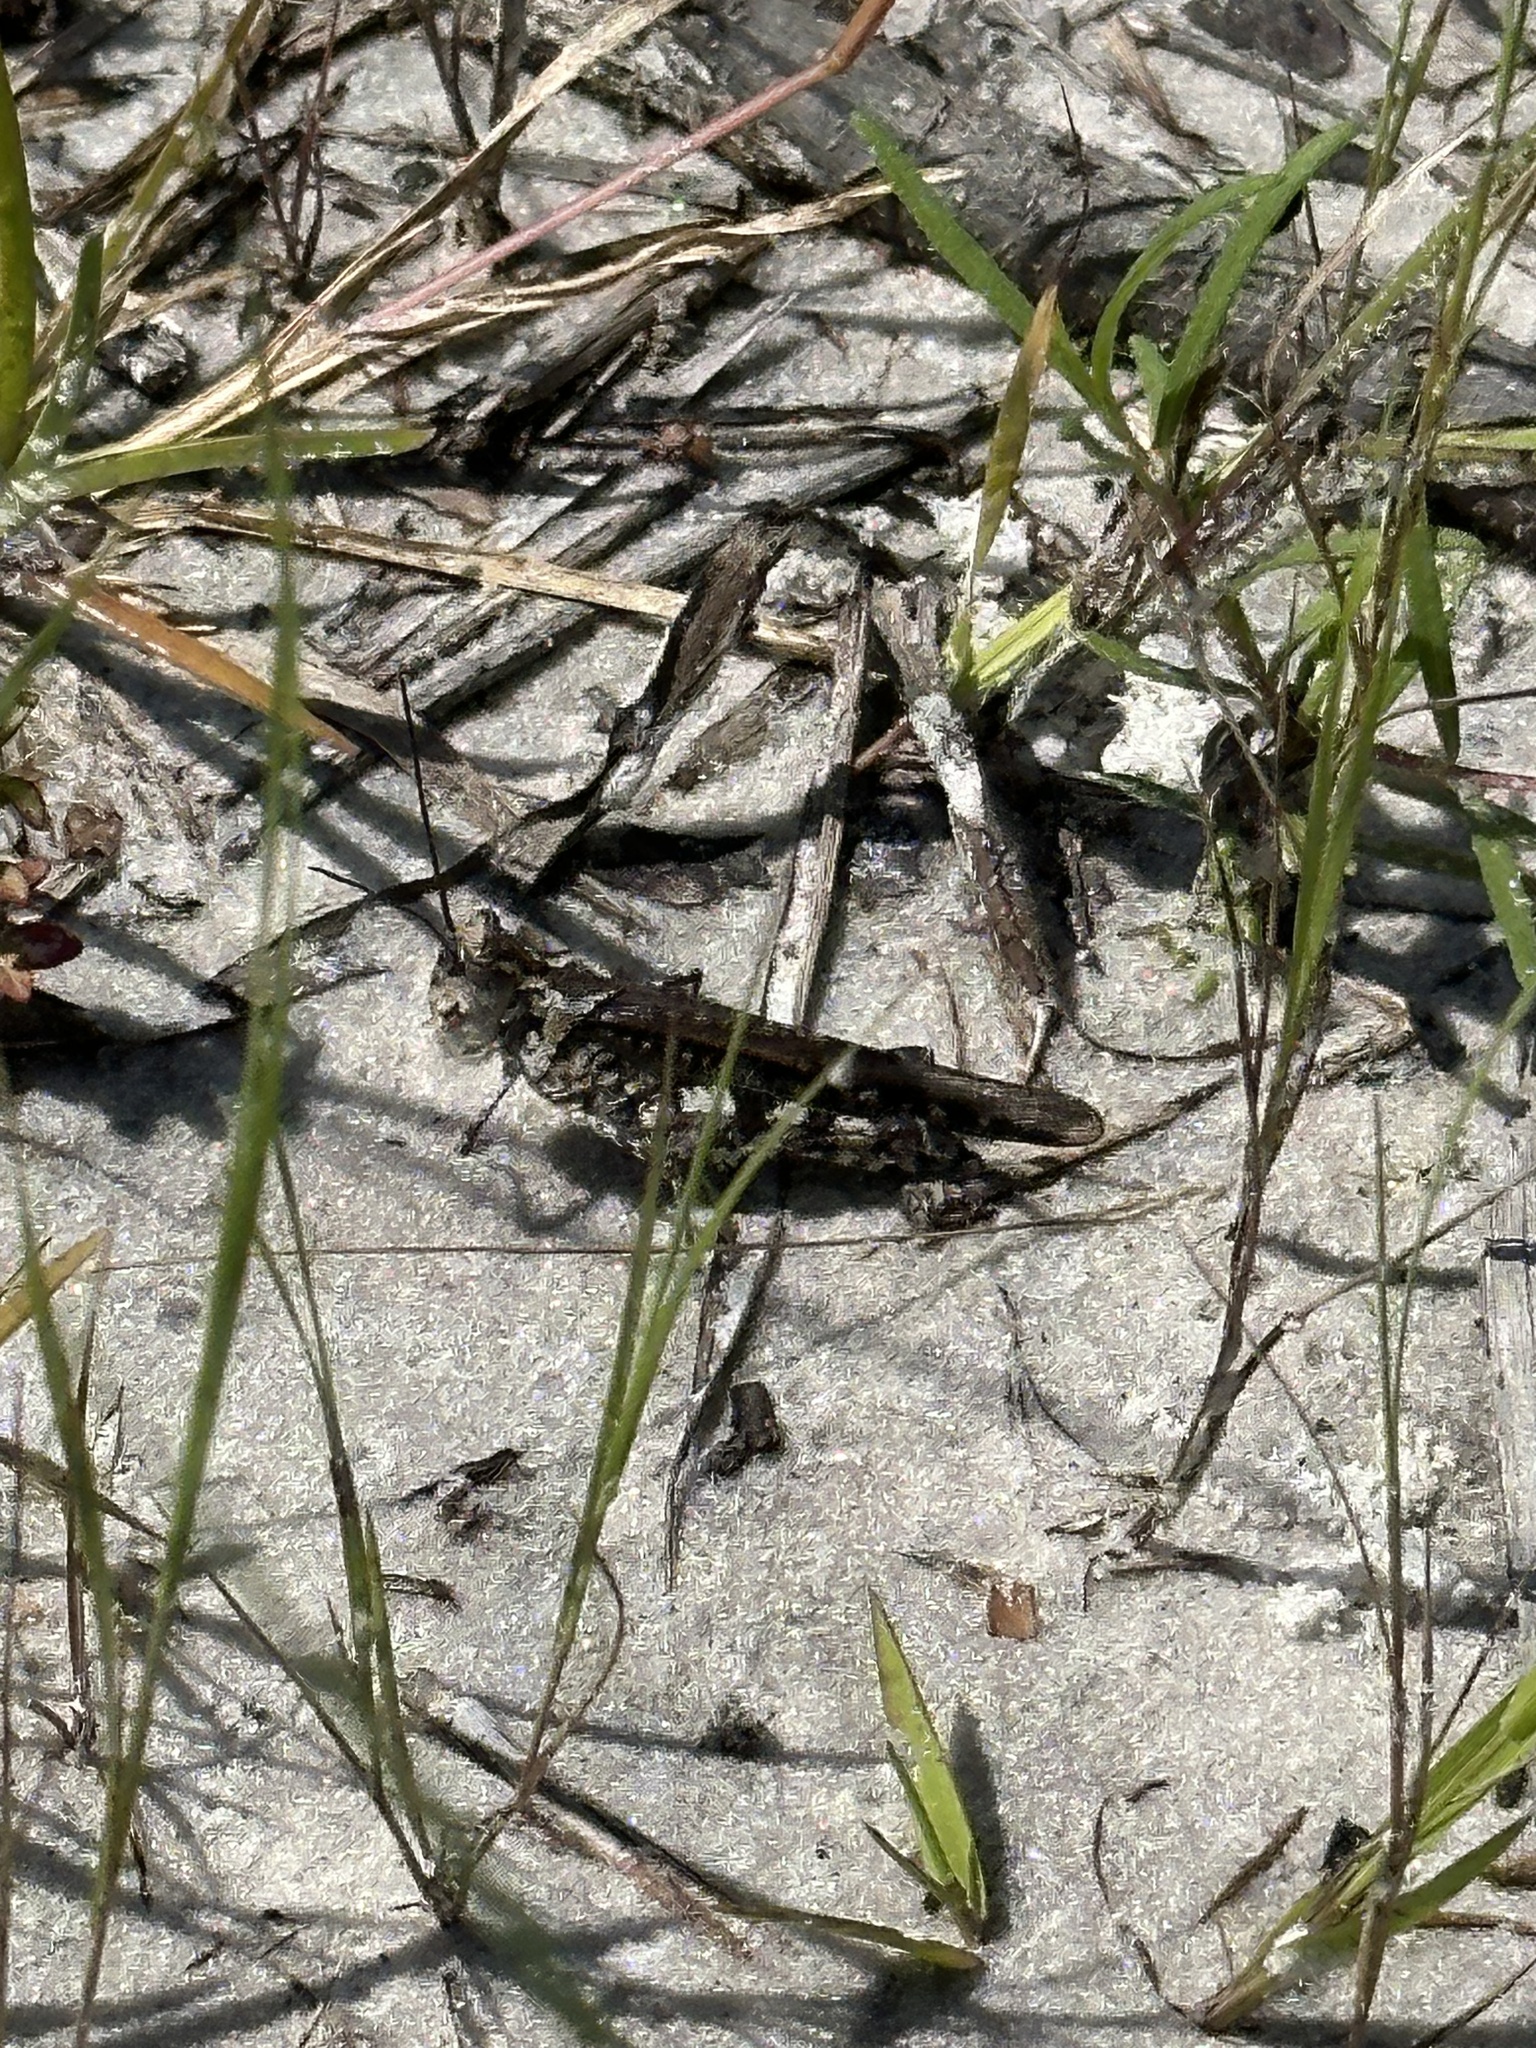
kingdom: Animalia
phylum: Arthropoda
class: Insecta
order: Orthoptera
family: Acrididae
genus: Psinidia
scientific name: Psinidia fenestralis
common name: Long-horned locust
